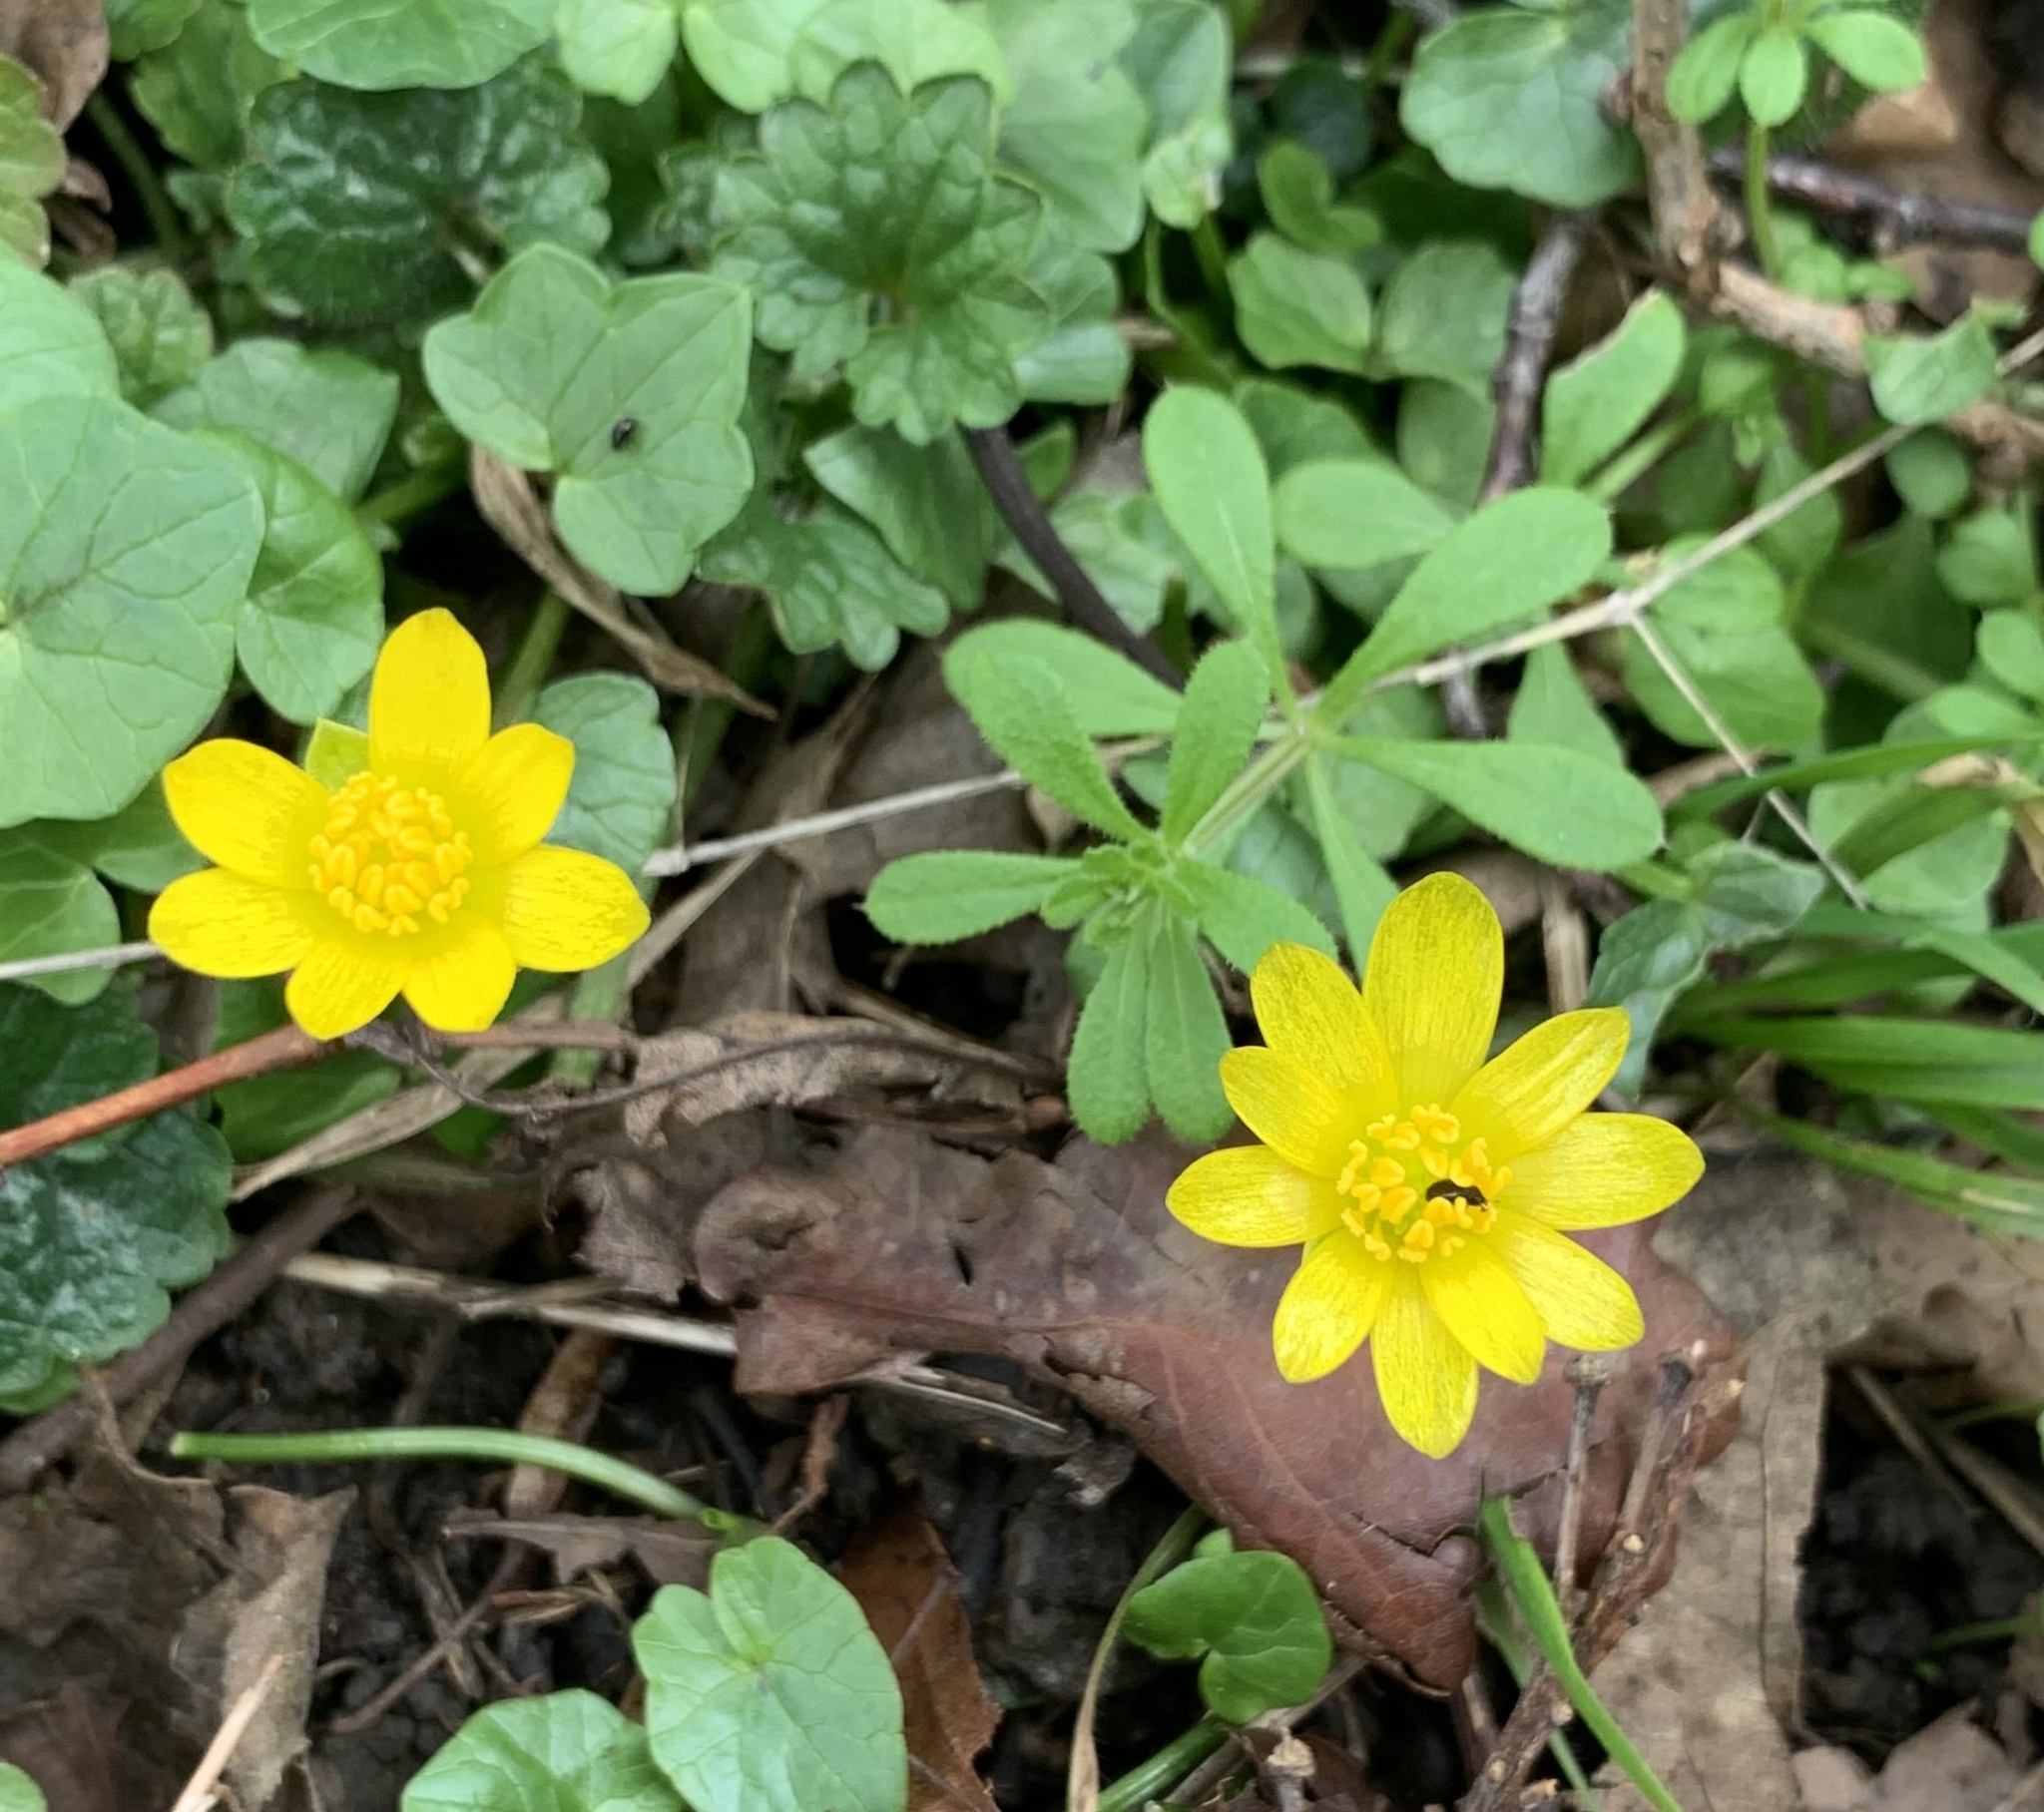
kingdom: Plantae
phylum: Tracheophyta
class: Magnoliopsida
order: Ranunculales
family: Ranunculaceae
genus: Ficaria
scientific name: Ficaria verna
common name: Lesser celandine
